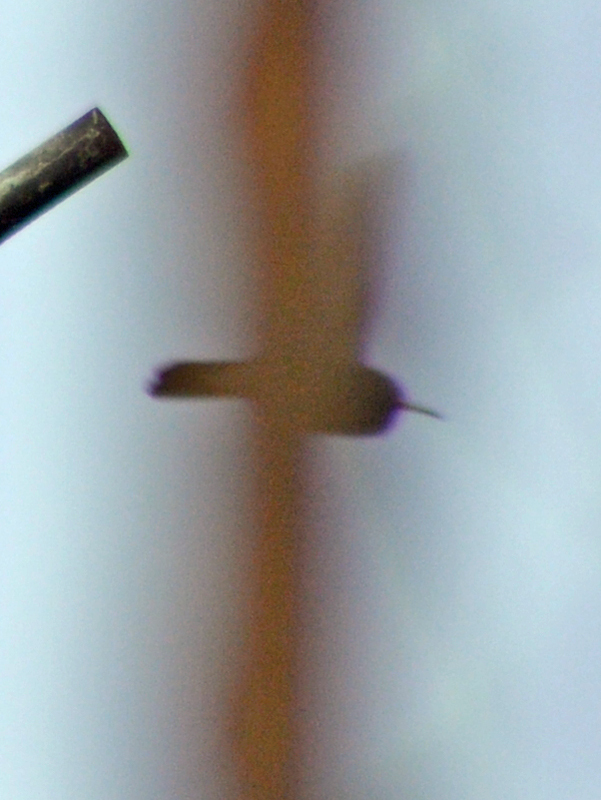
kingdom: Animalia
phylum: Chordata
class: Aves
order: Apodiformes
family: Trochilidae
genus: Saucerottia
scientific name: Saucerottia beryllina
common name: Berylline hummingbird
